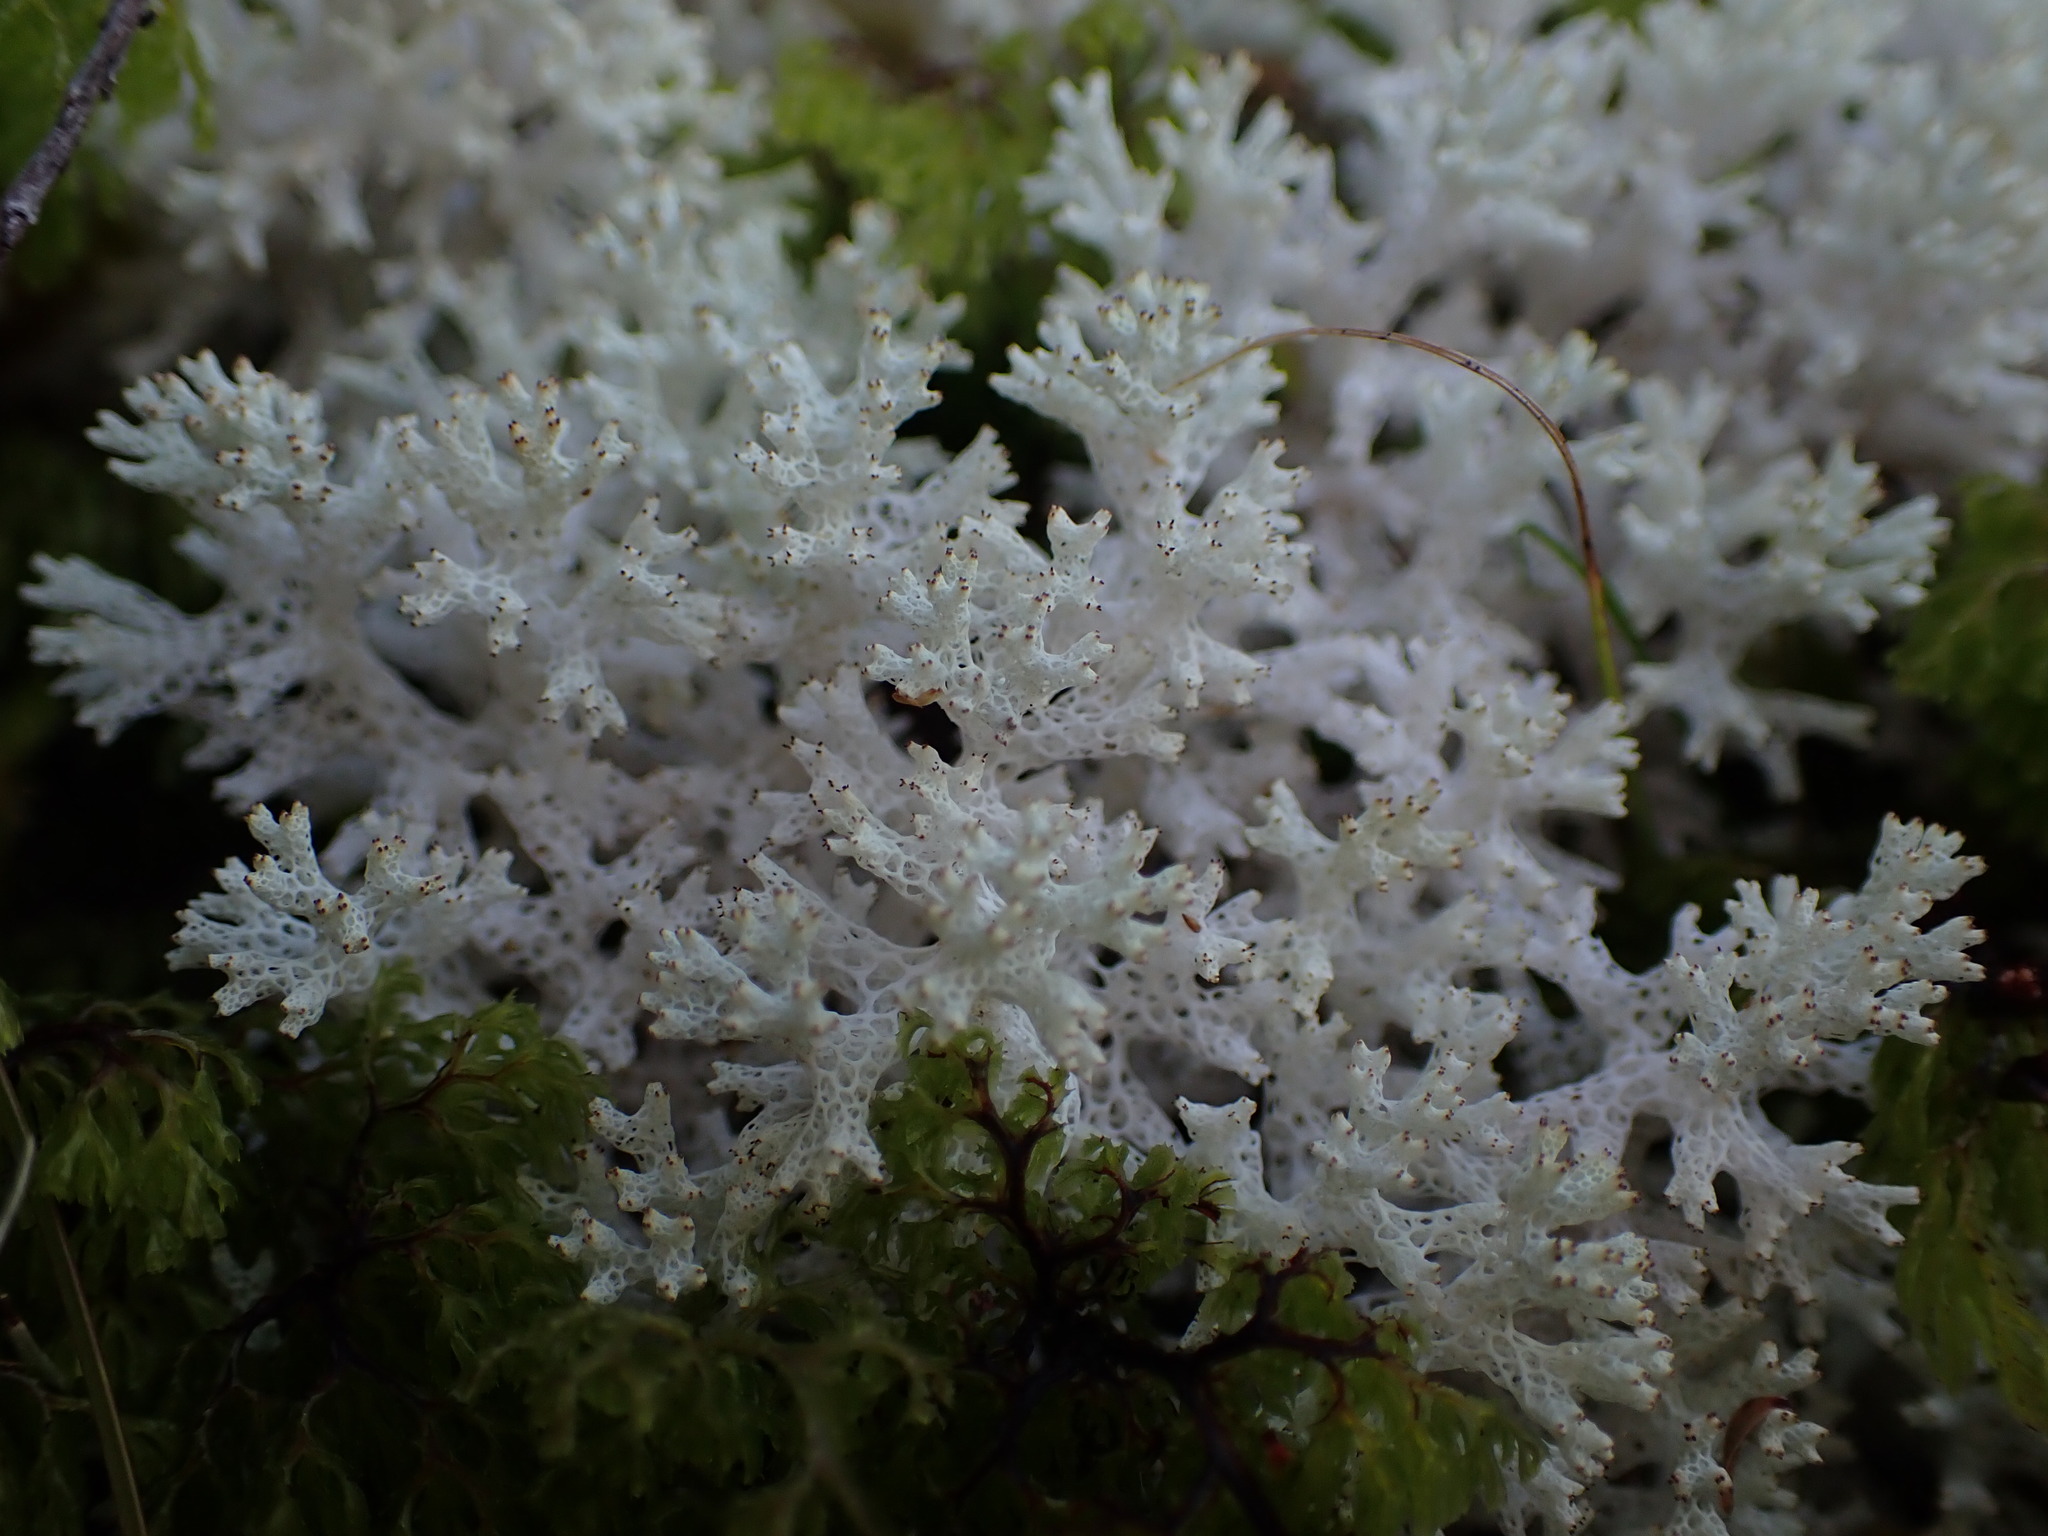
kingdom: Fungi
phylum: Ascomycota
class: Lecanoromycetes
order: Lecanorales
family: Cladoniaceae
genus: Pulchrocladia
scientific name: Pulchrocladia retipora
